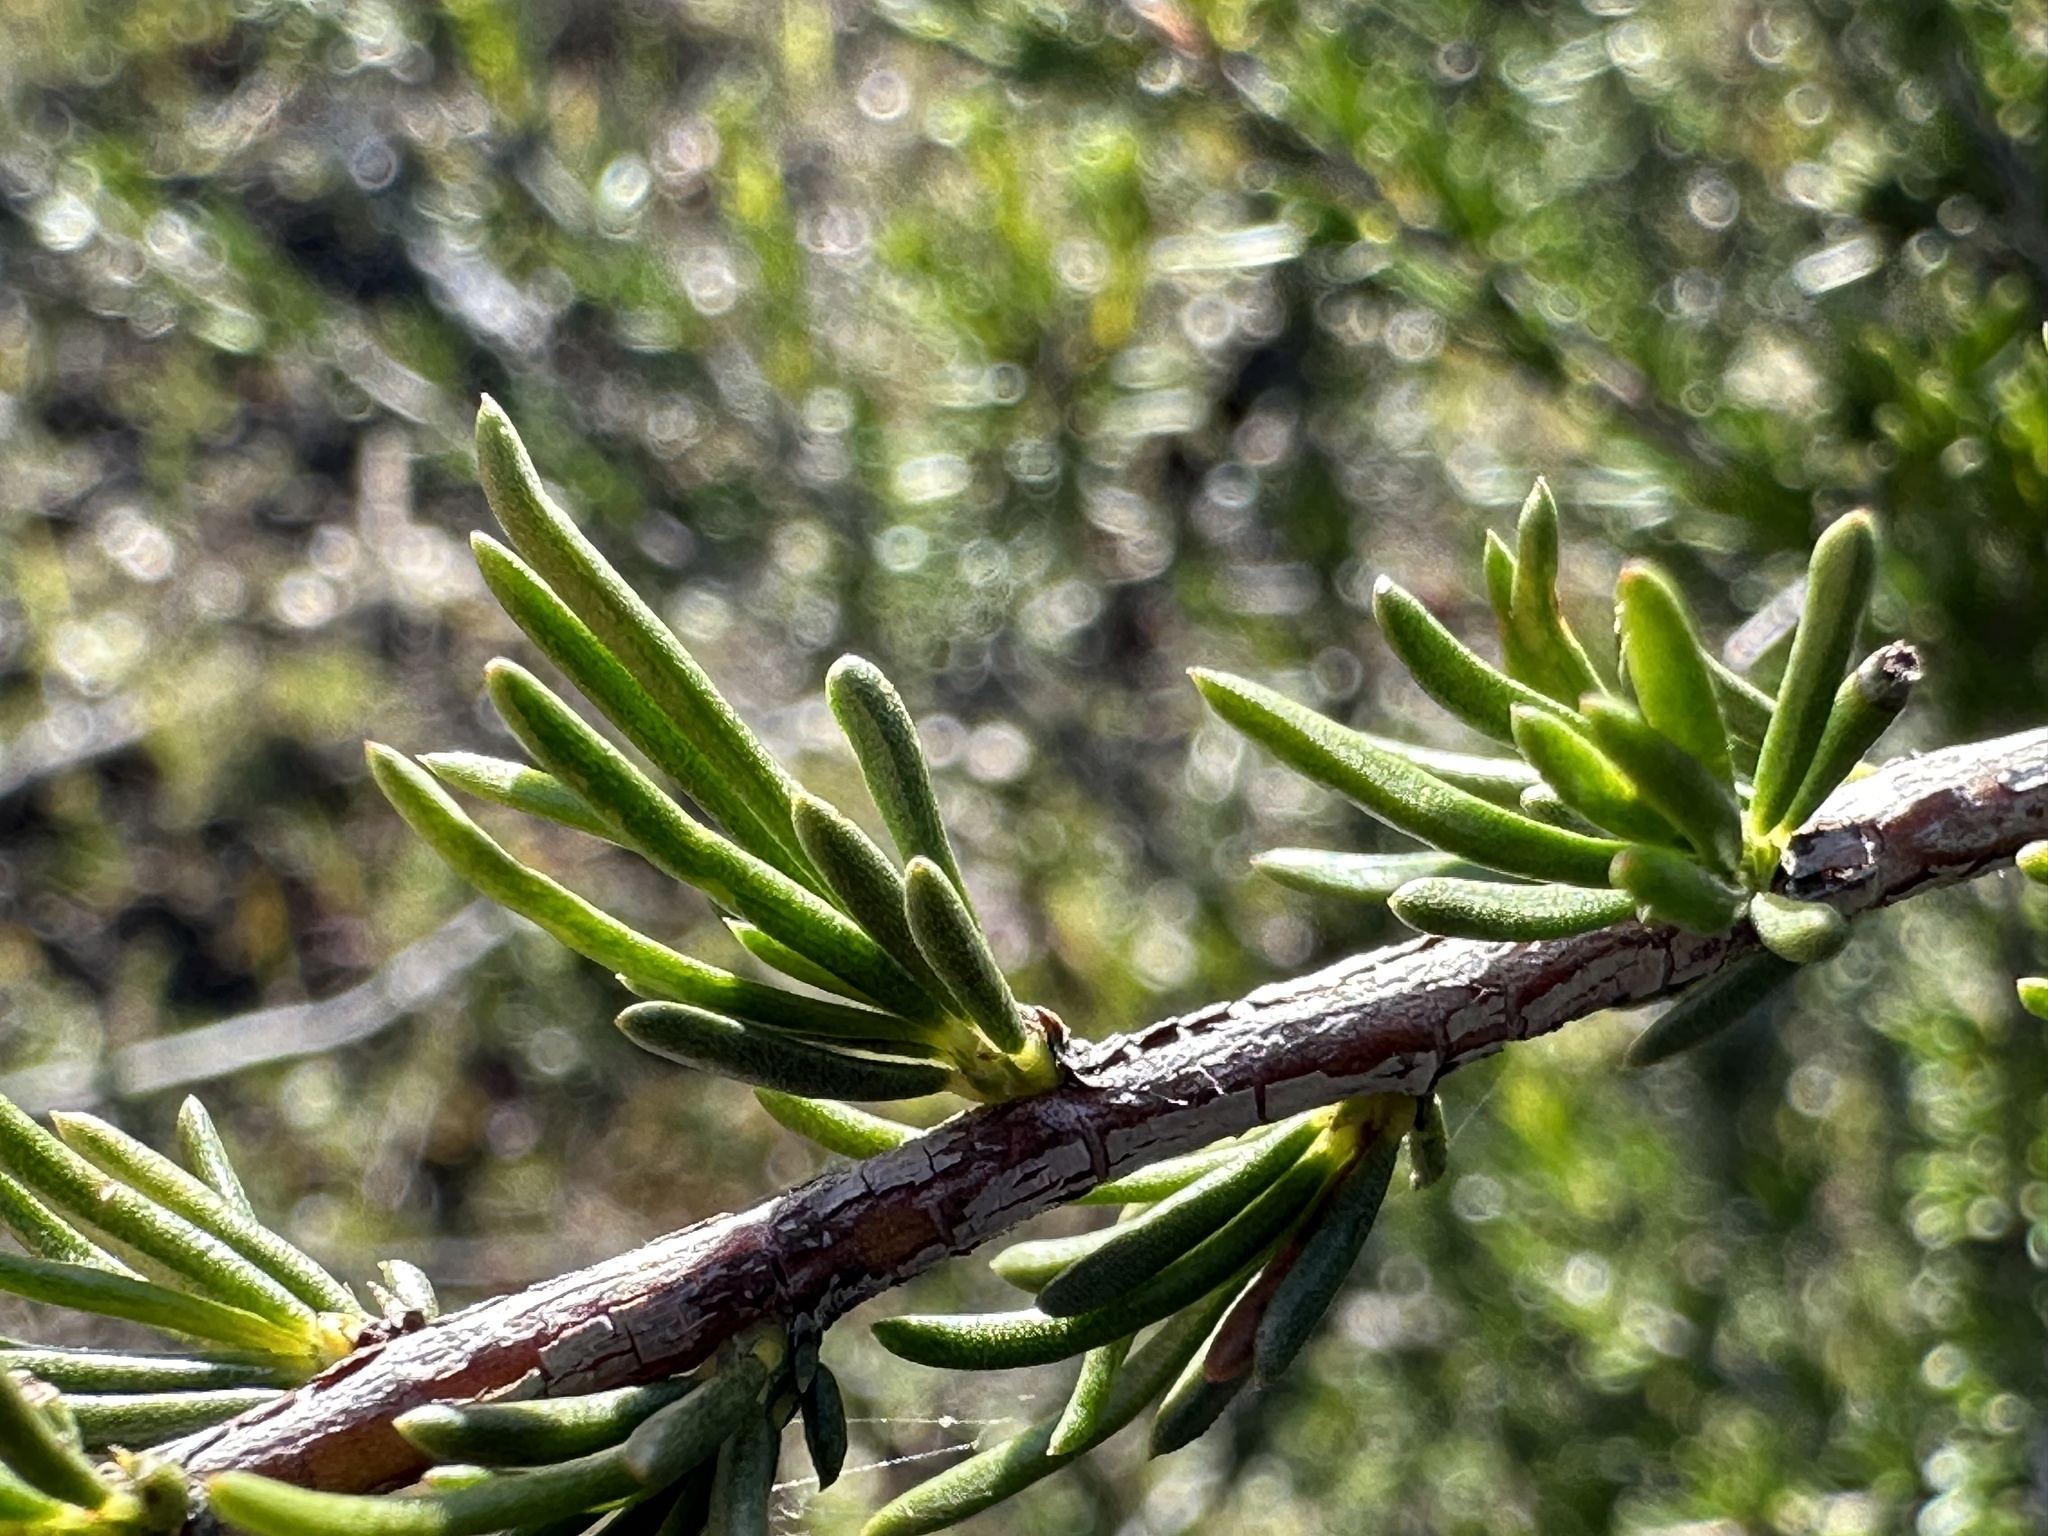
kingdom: Plantae
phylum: Tracheophyta
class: Magnoliopsida
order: Rosales
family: Rosaceae
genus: Adenostoma
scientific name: Adenostoma fasciculatum
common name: Chamise
